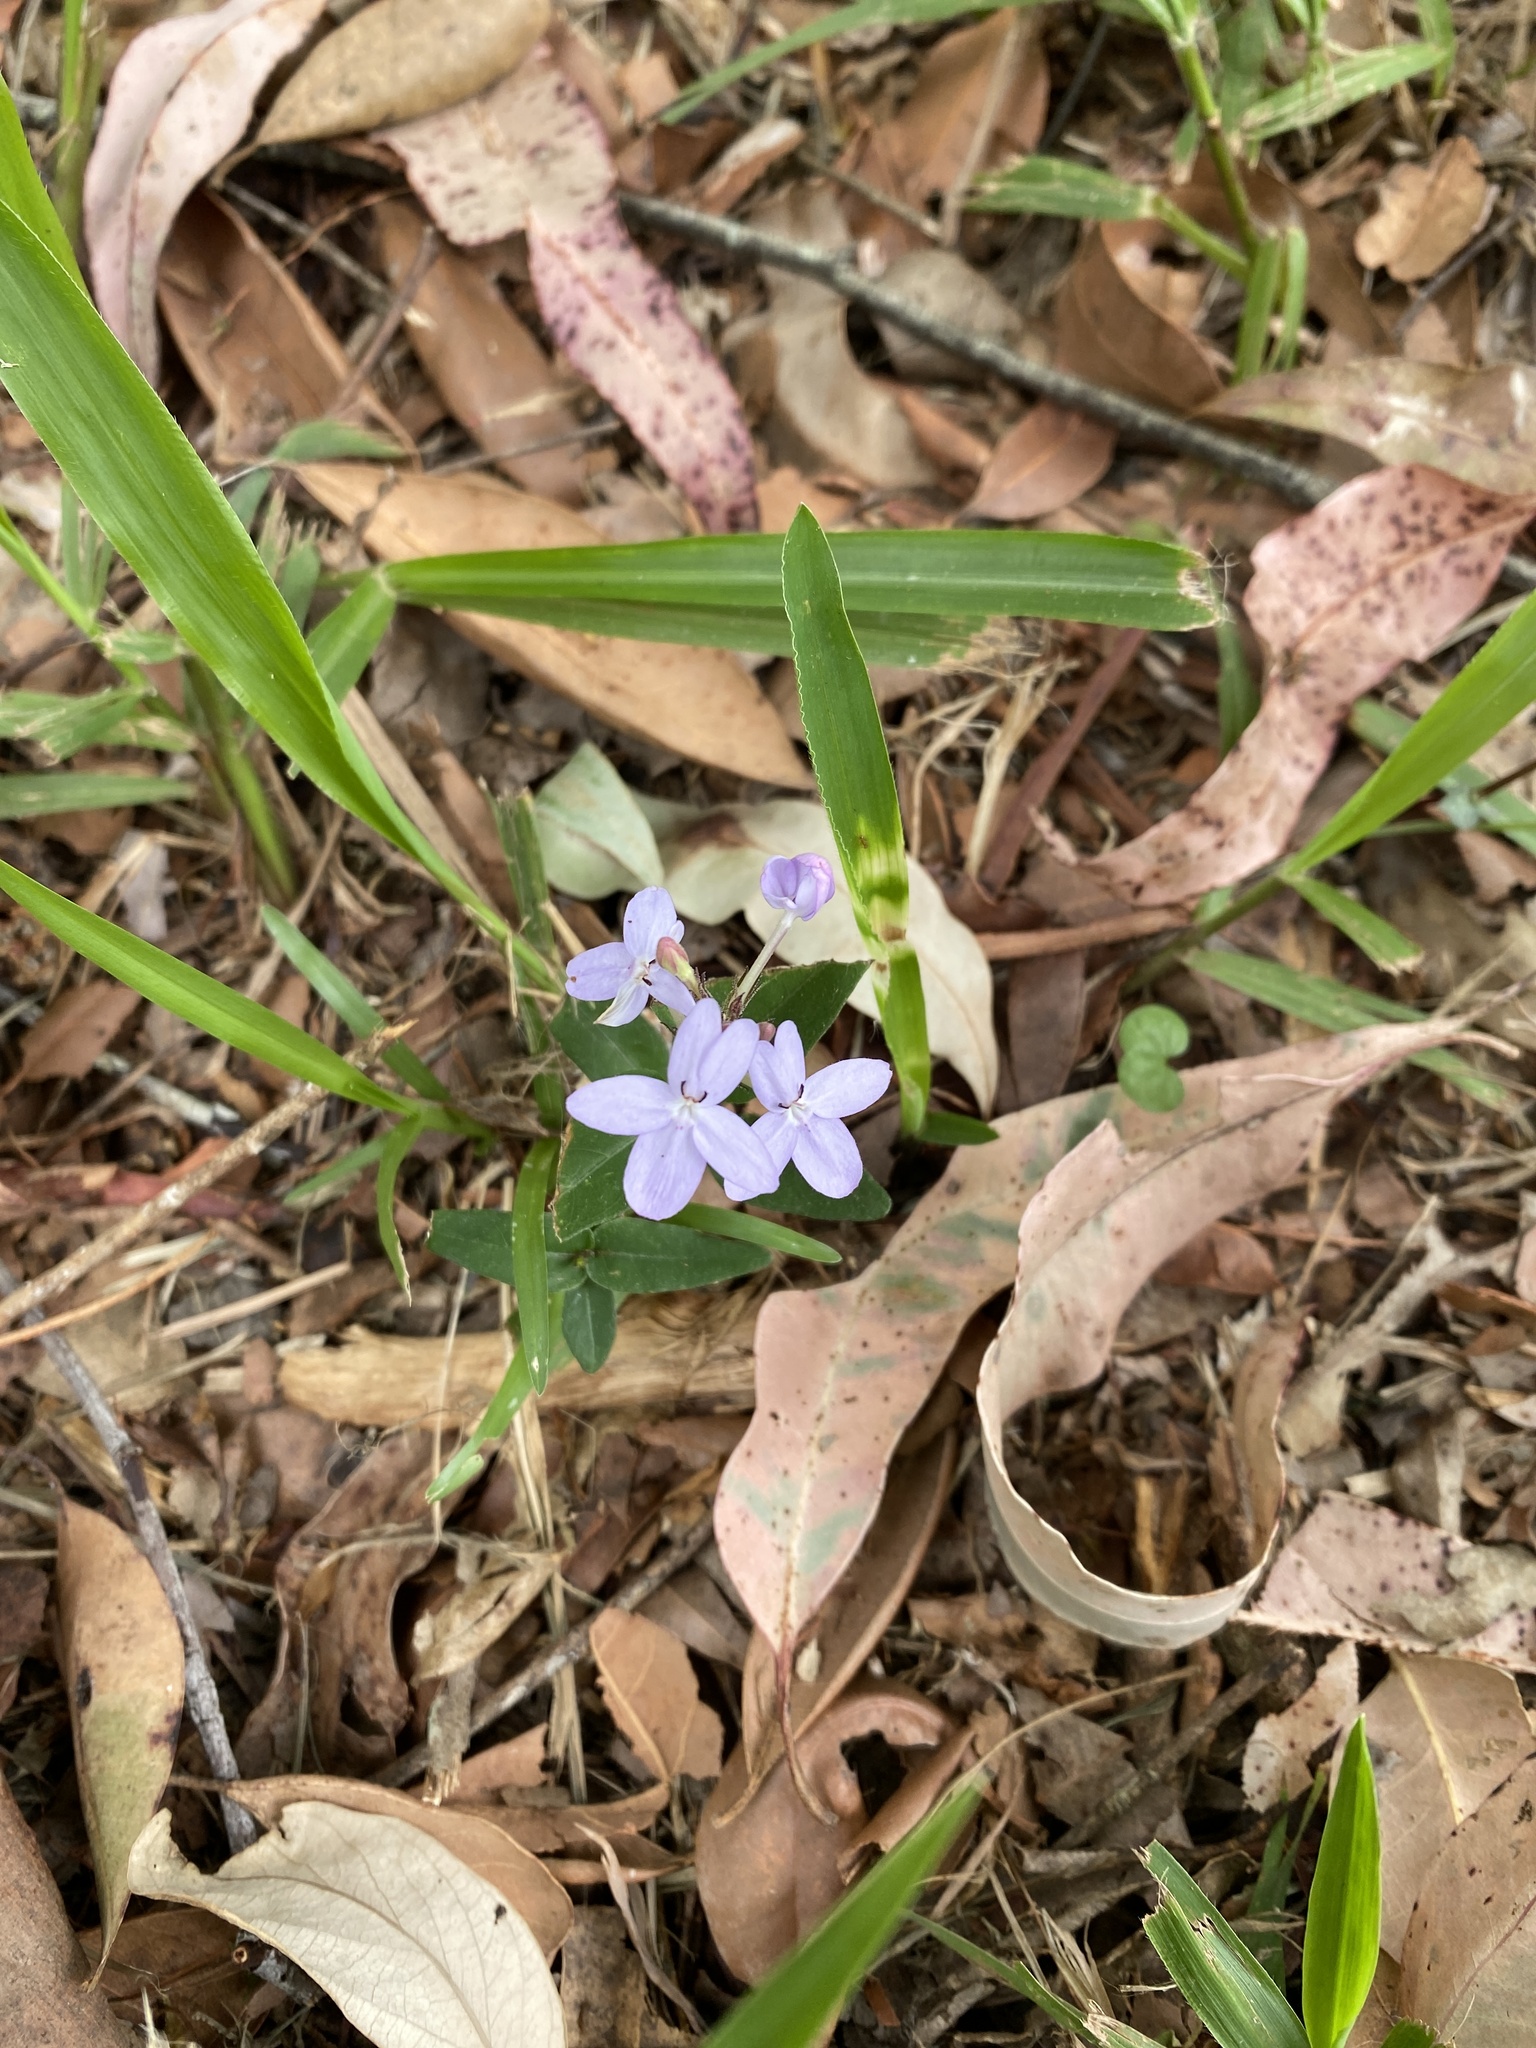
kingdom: Plantae
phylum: Tracheophyta
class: Magnoliopsida
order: Lamiales
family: Acanthaceae
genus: Pseuderanthemum
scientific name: Pseuderanthemum variabile
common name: Night and afternoon
